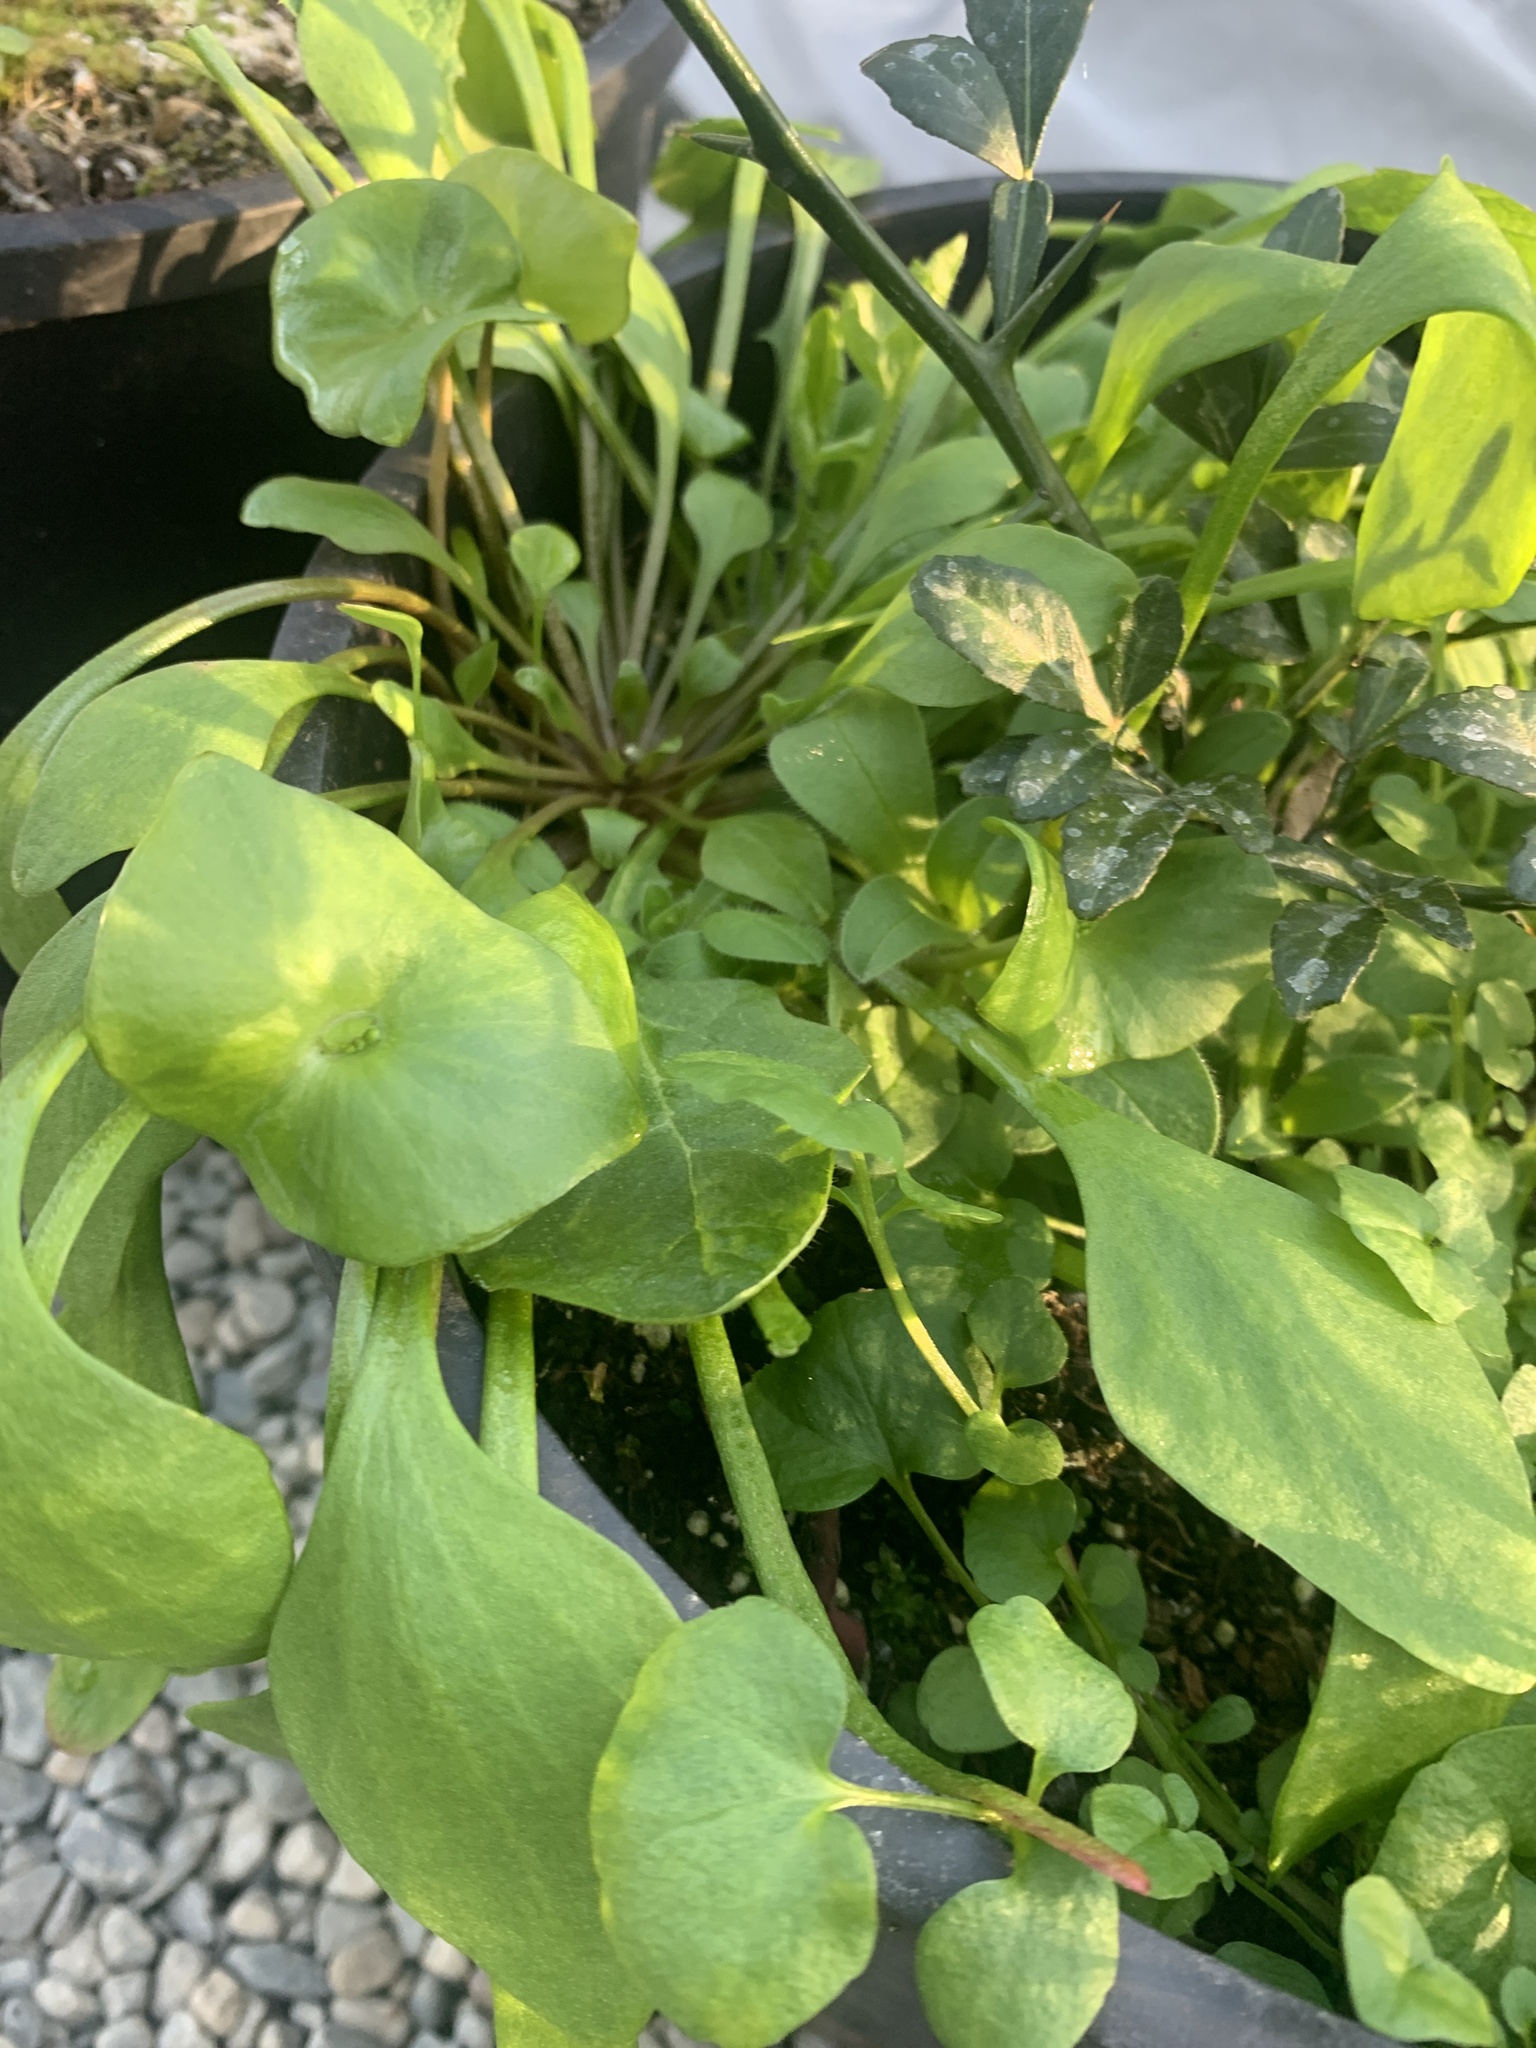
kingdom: Plantae
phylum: Tracheophyta
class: Magnoliopsida
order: Caryophyllales
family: Montiaceae
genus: Claytonia
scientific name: Claytonia perfoliata
